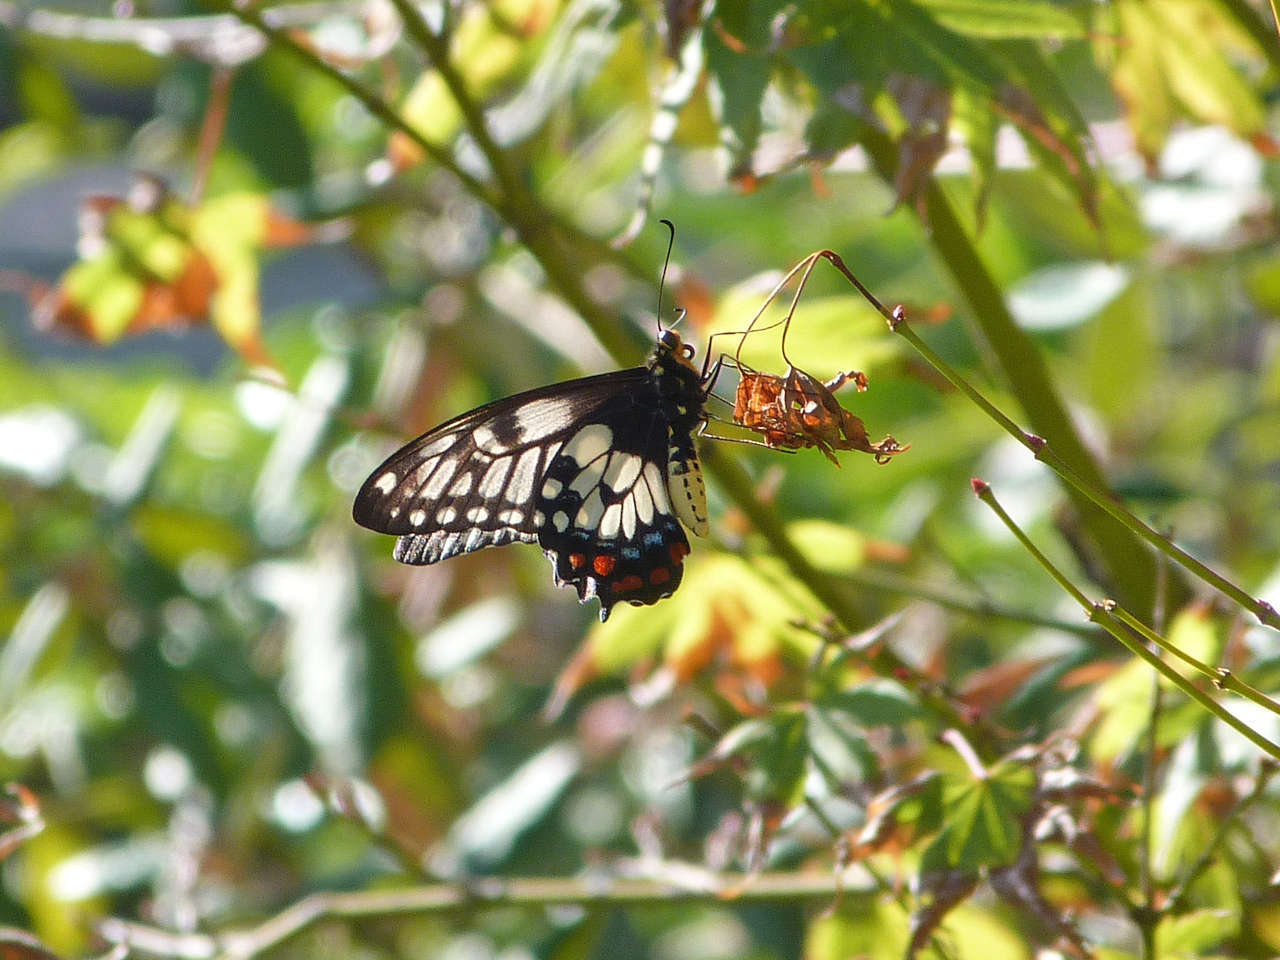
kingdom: Animalia
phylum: Arthropoda
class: Insecta
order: Lepidoptera
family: Papilionidae
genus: Papilio
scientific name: Papilio anactus
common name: Dingy swallowtail
